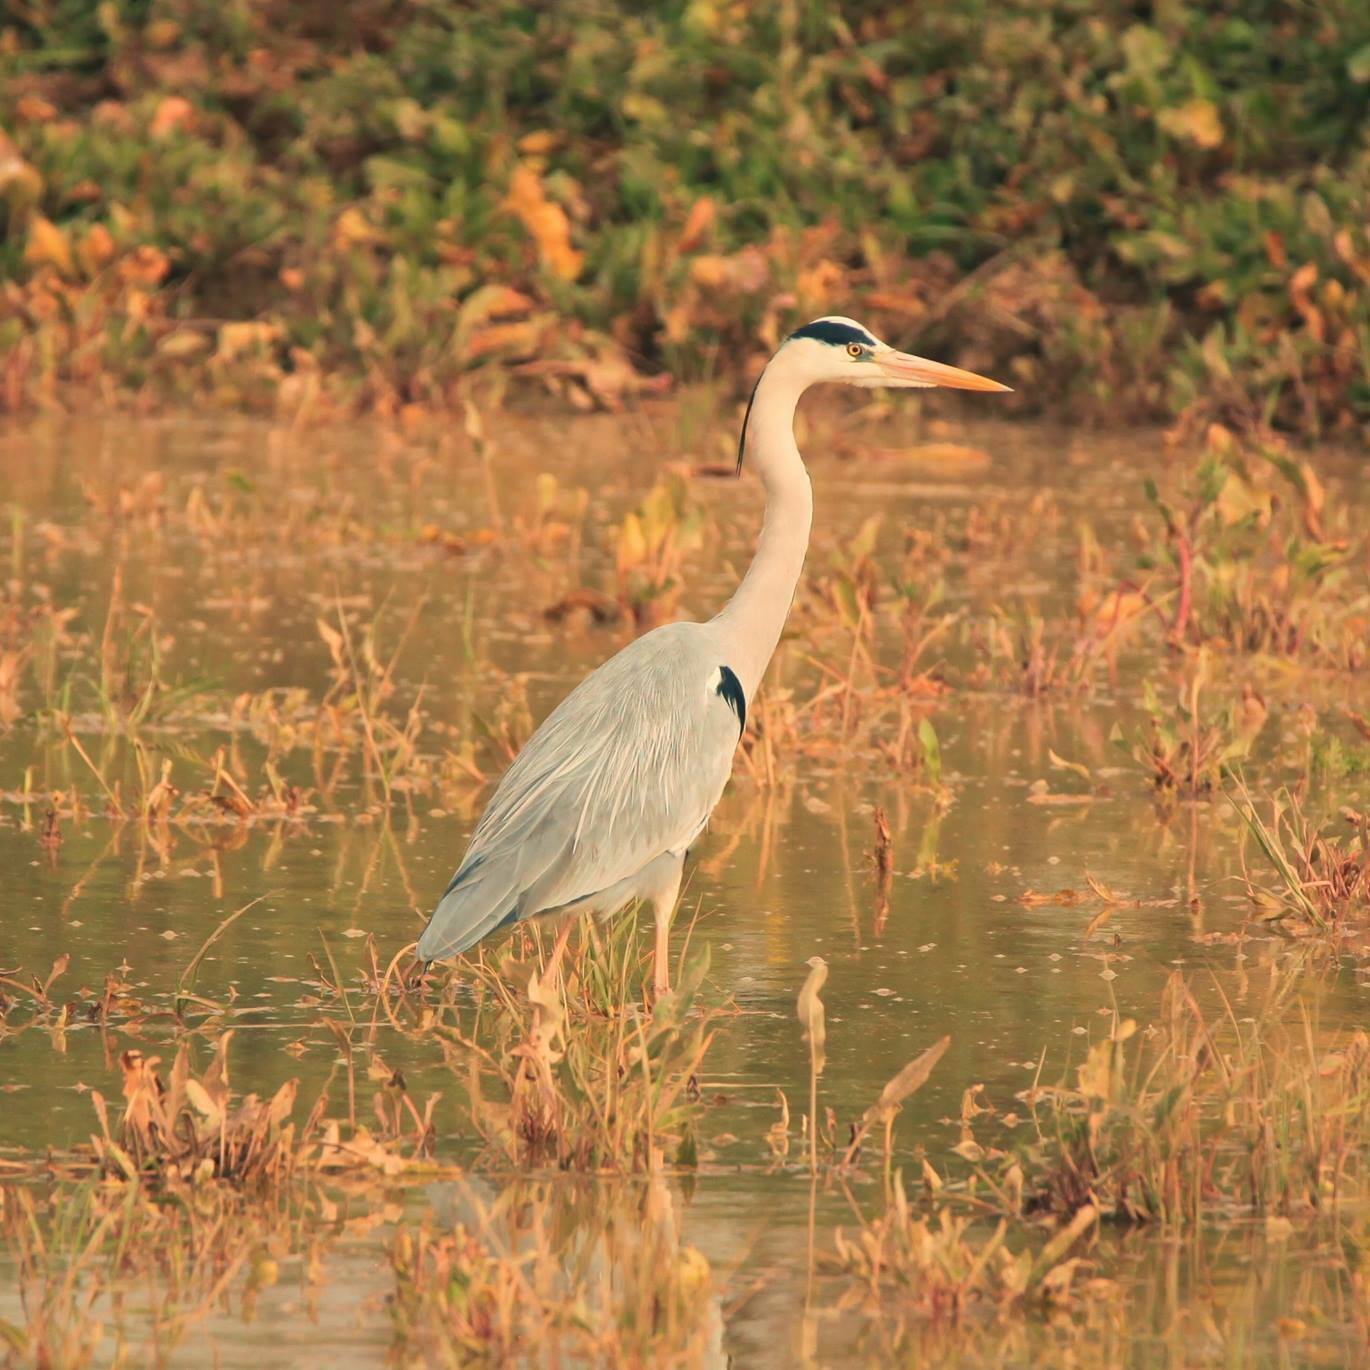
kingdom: Animalia
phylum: Chordata
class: Aves
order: Pelecaniformes
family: Ardeidae
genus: Ardea
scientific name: Ardea cinerea
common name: Grey heron
